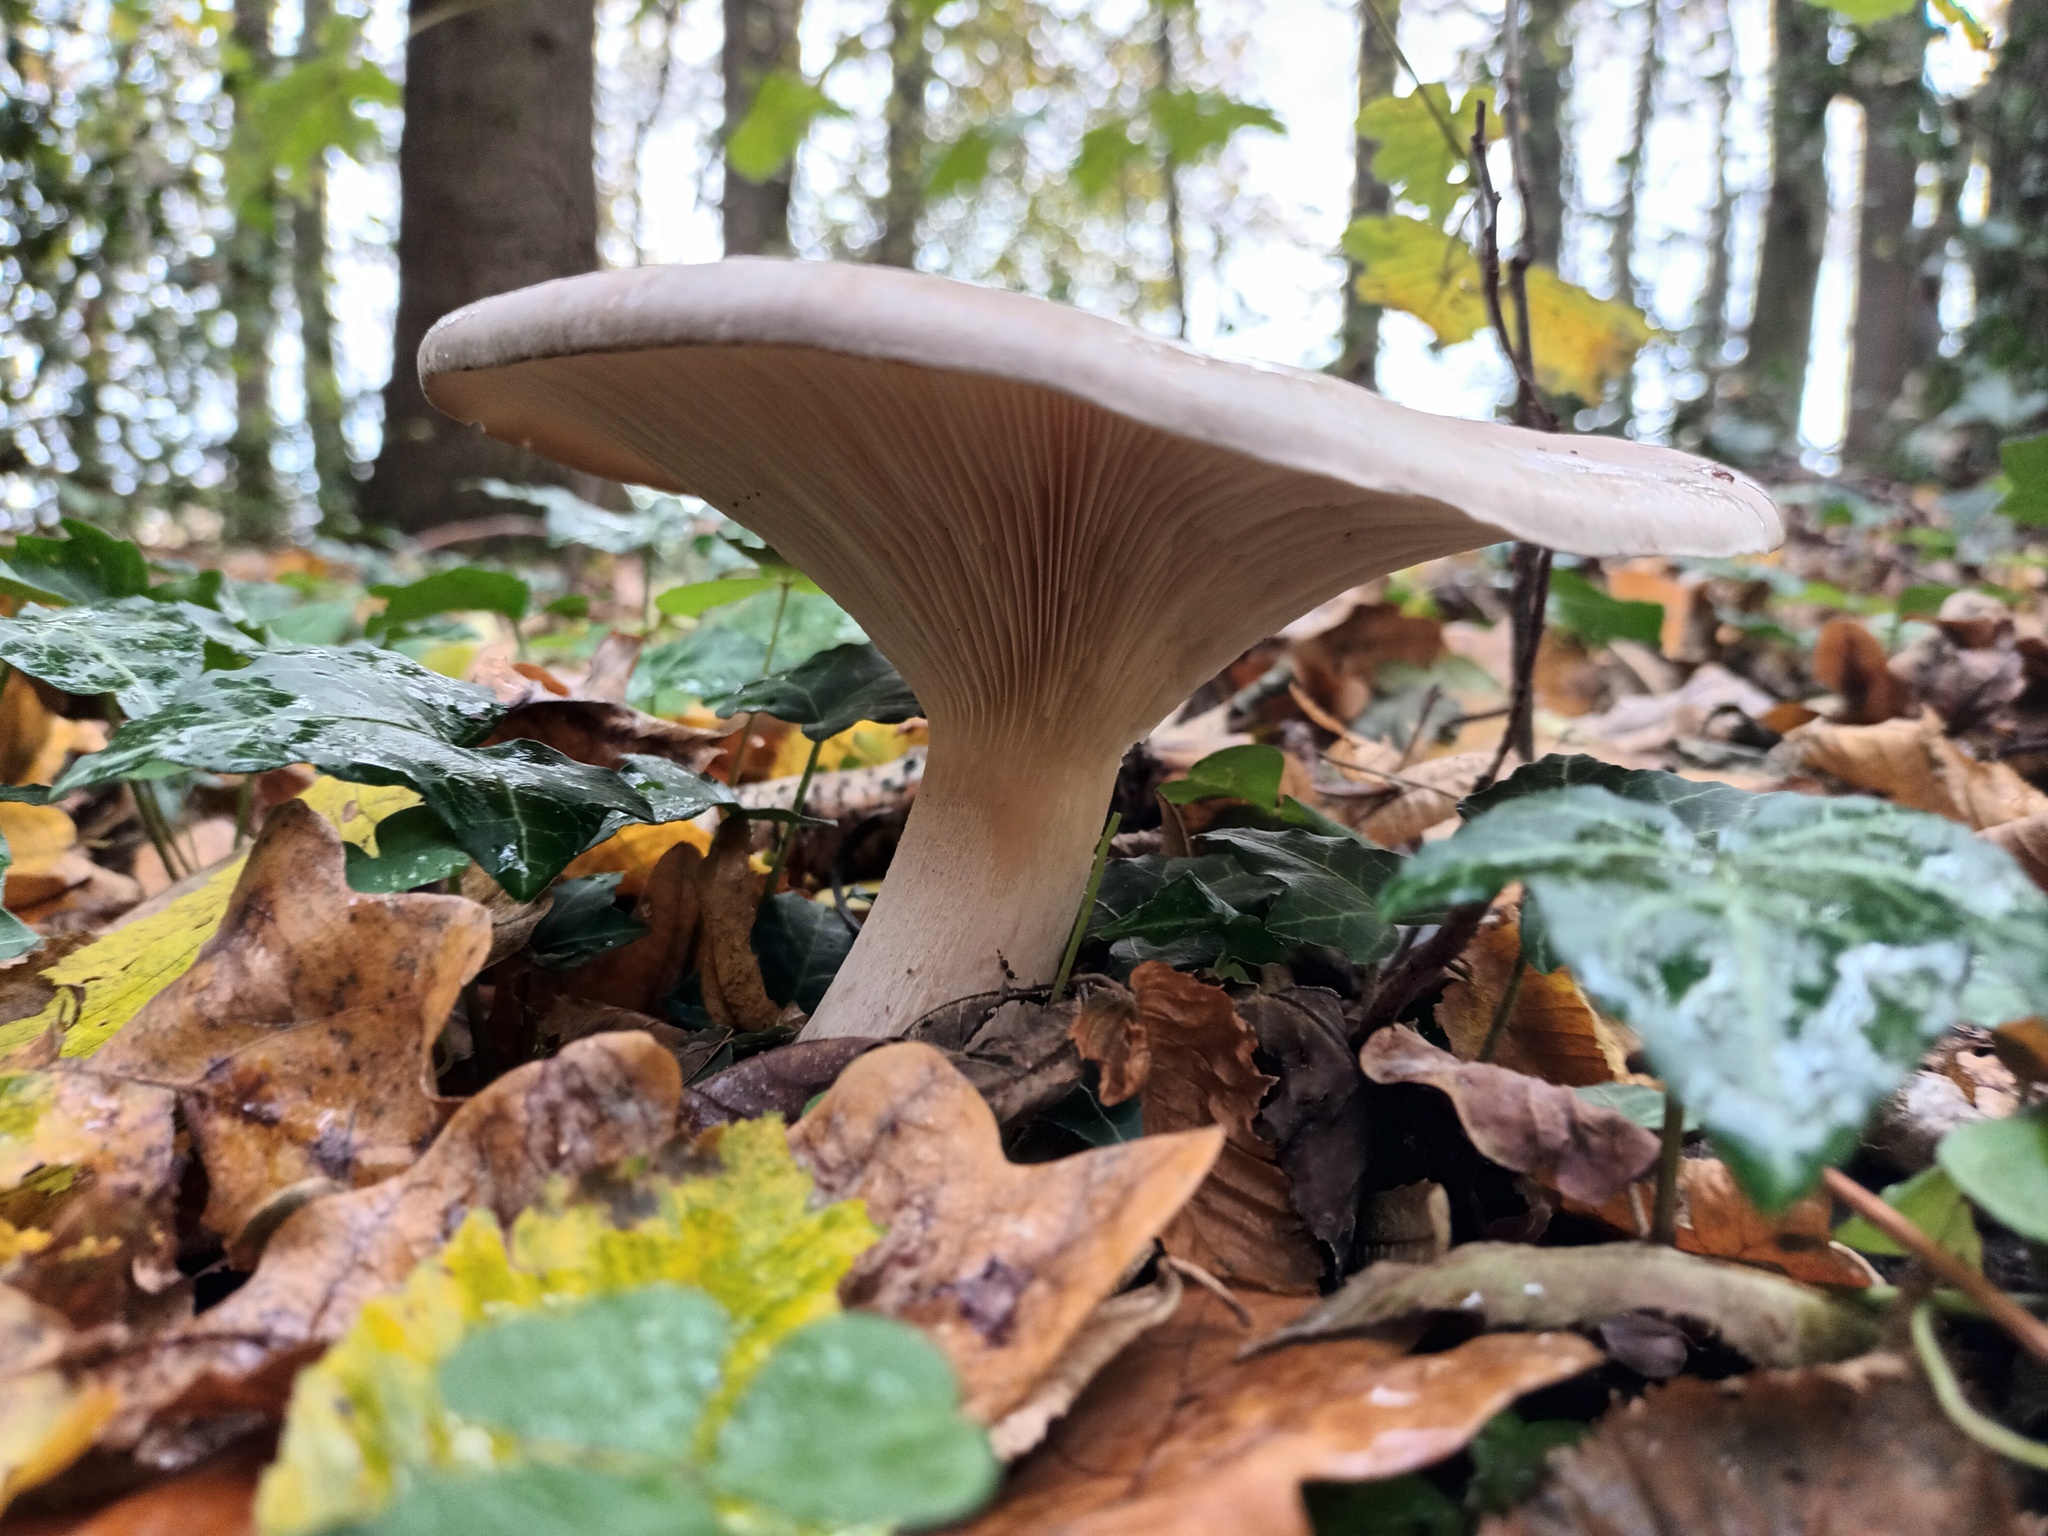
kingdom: Fungi
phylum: Basidiomycota
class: Agaricomycetes
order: Agaricales
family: Tricholomataceae
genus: Clitocybe
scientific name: Clitocybe nebularis
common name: Clouded agaric
